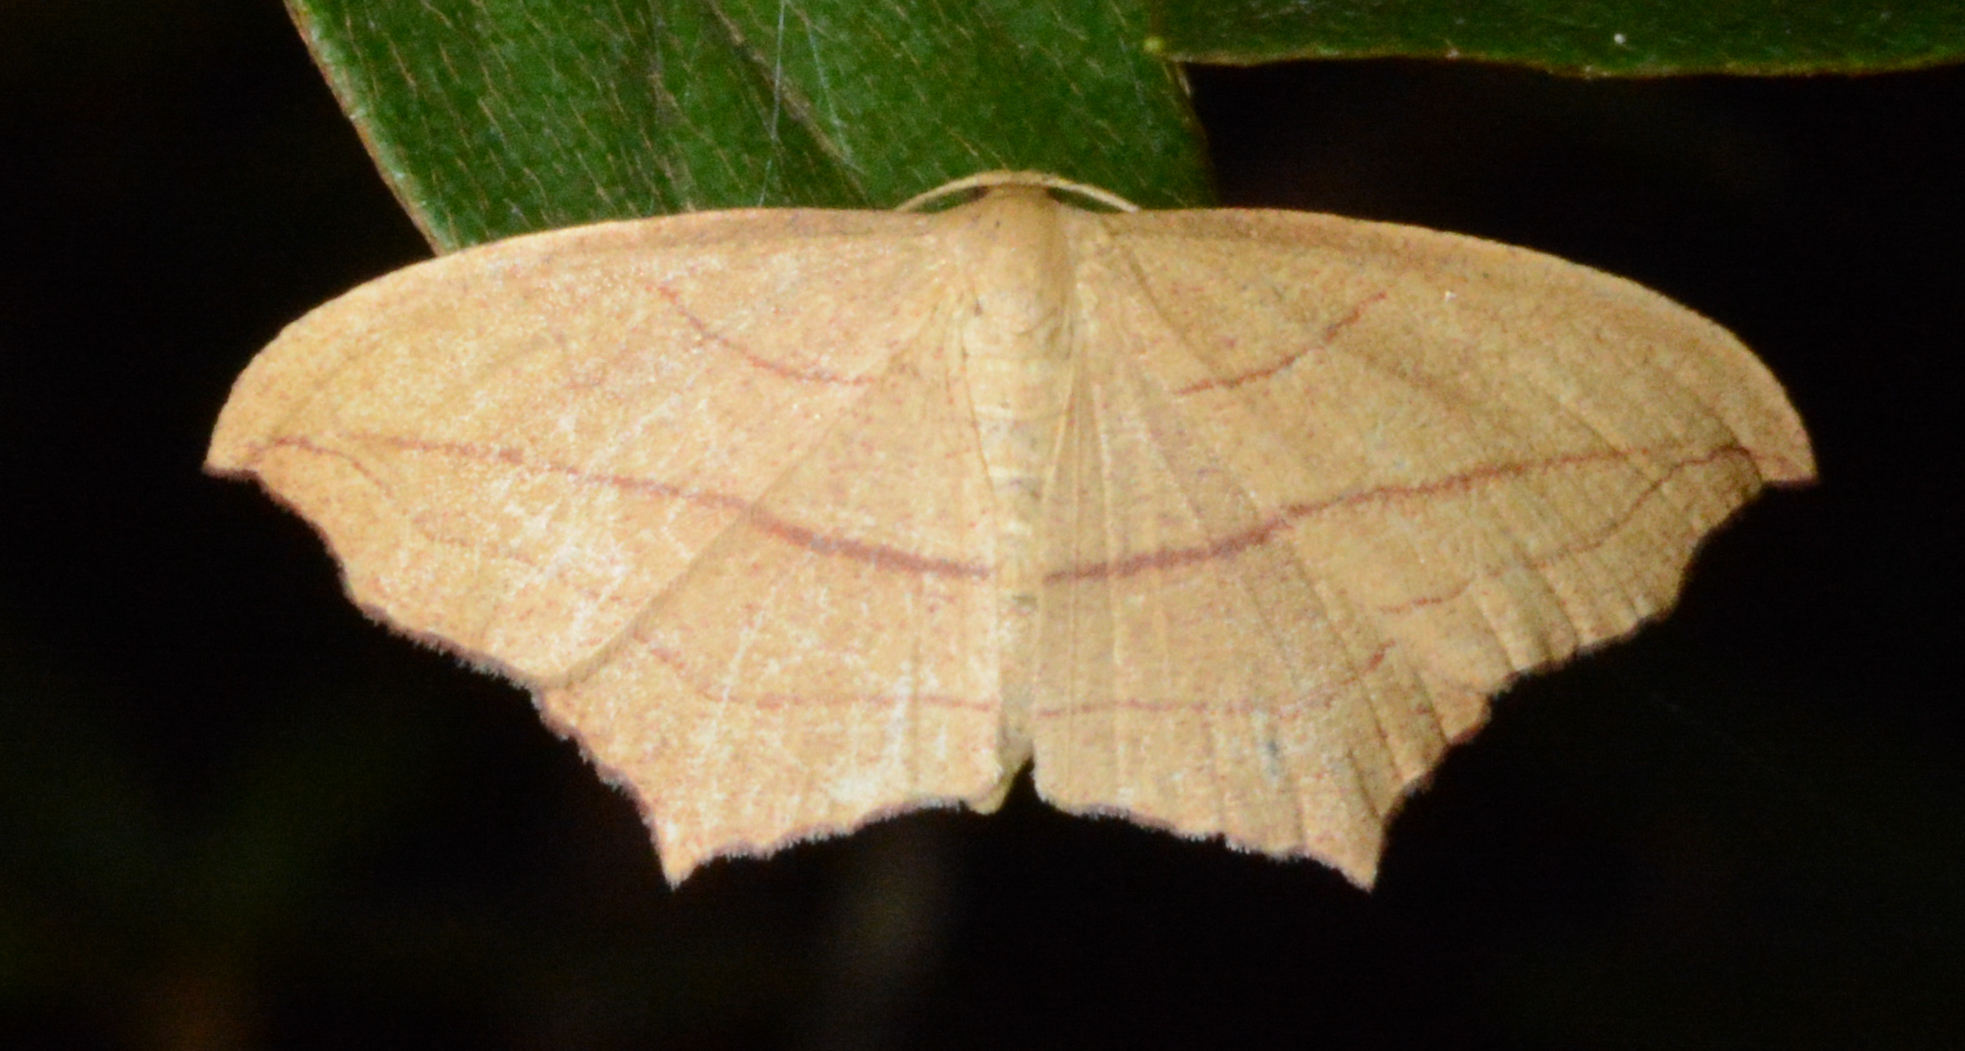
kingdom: Animalia
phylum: Arthropoda
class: Insecta
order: Lepidoptera
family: Geometridae
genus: Timandra
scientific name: Timandra amaturaria
